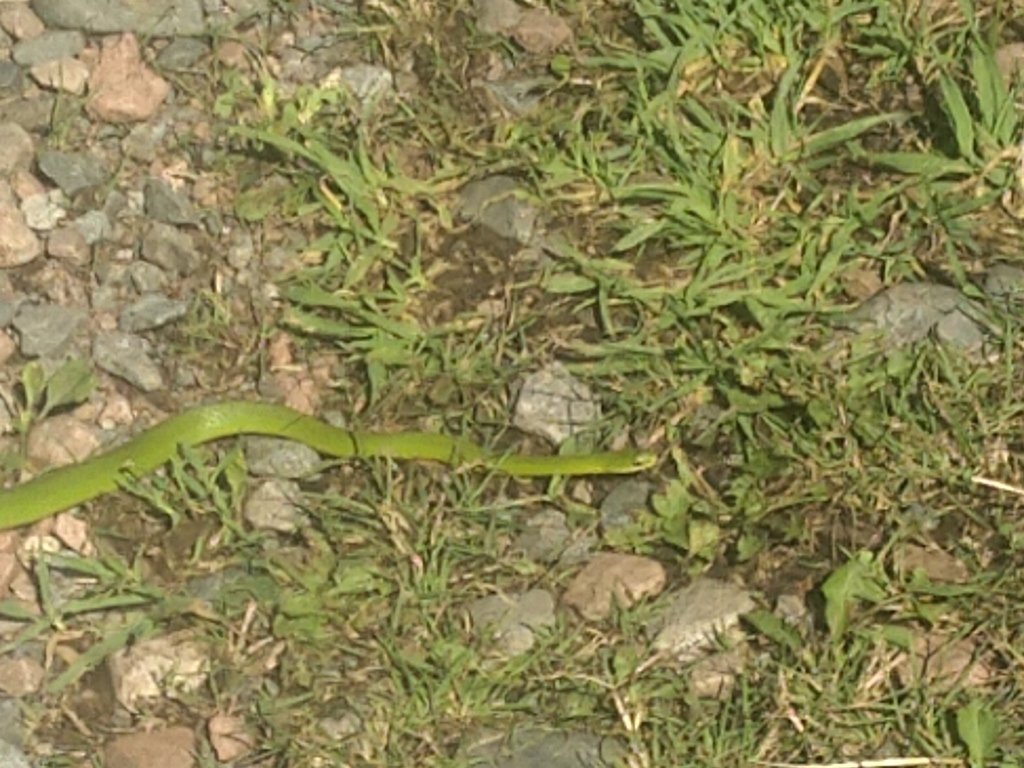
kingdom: Animalia
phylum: Chordata
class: Squamata
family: Colubridae
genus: Opheodrys
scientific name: Opheodrys vernalis
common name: Smooth green snake
